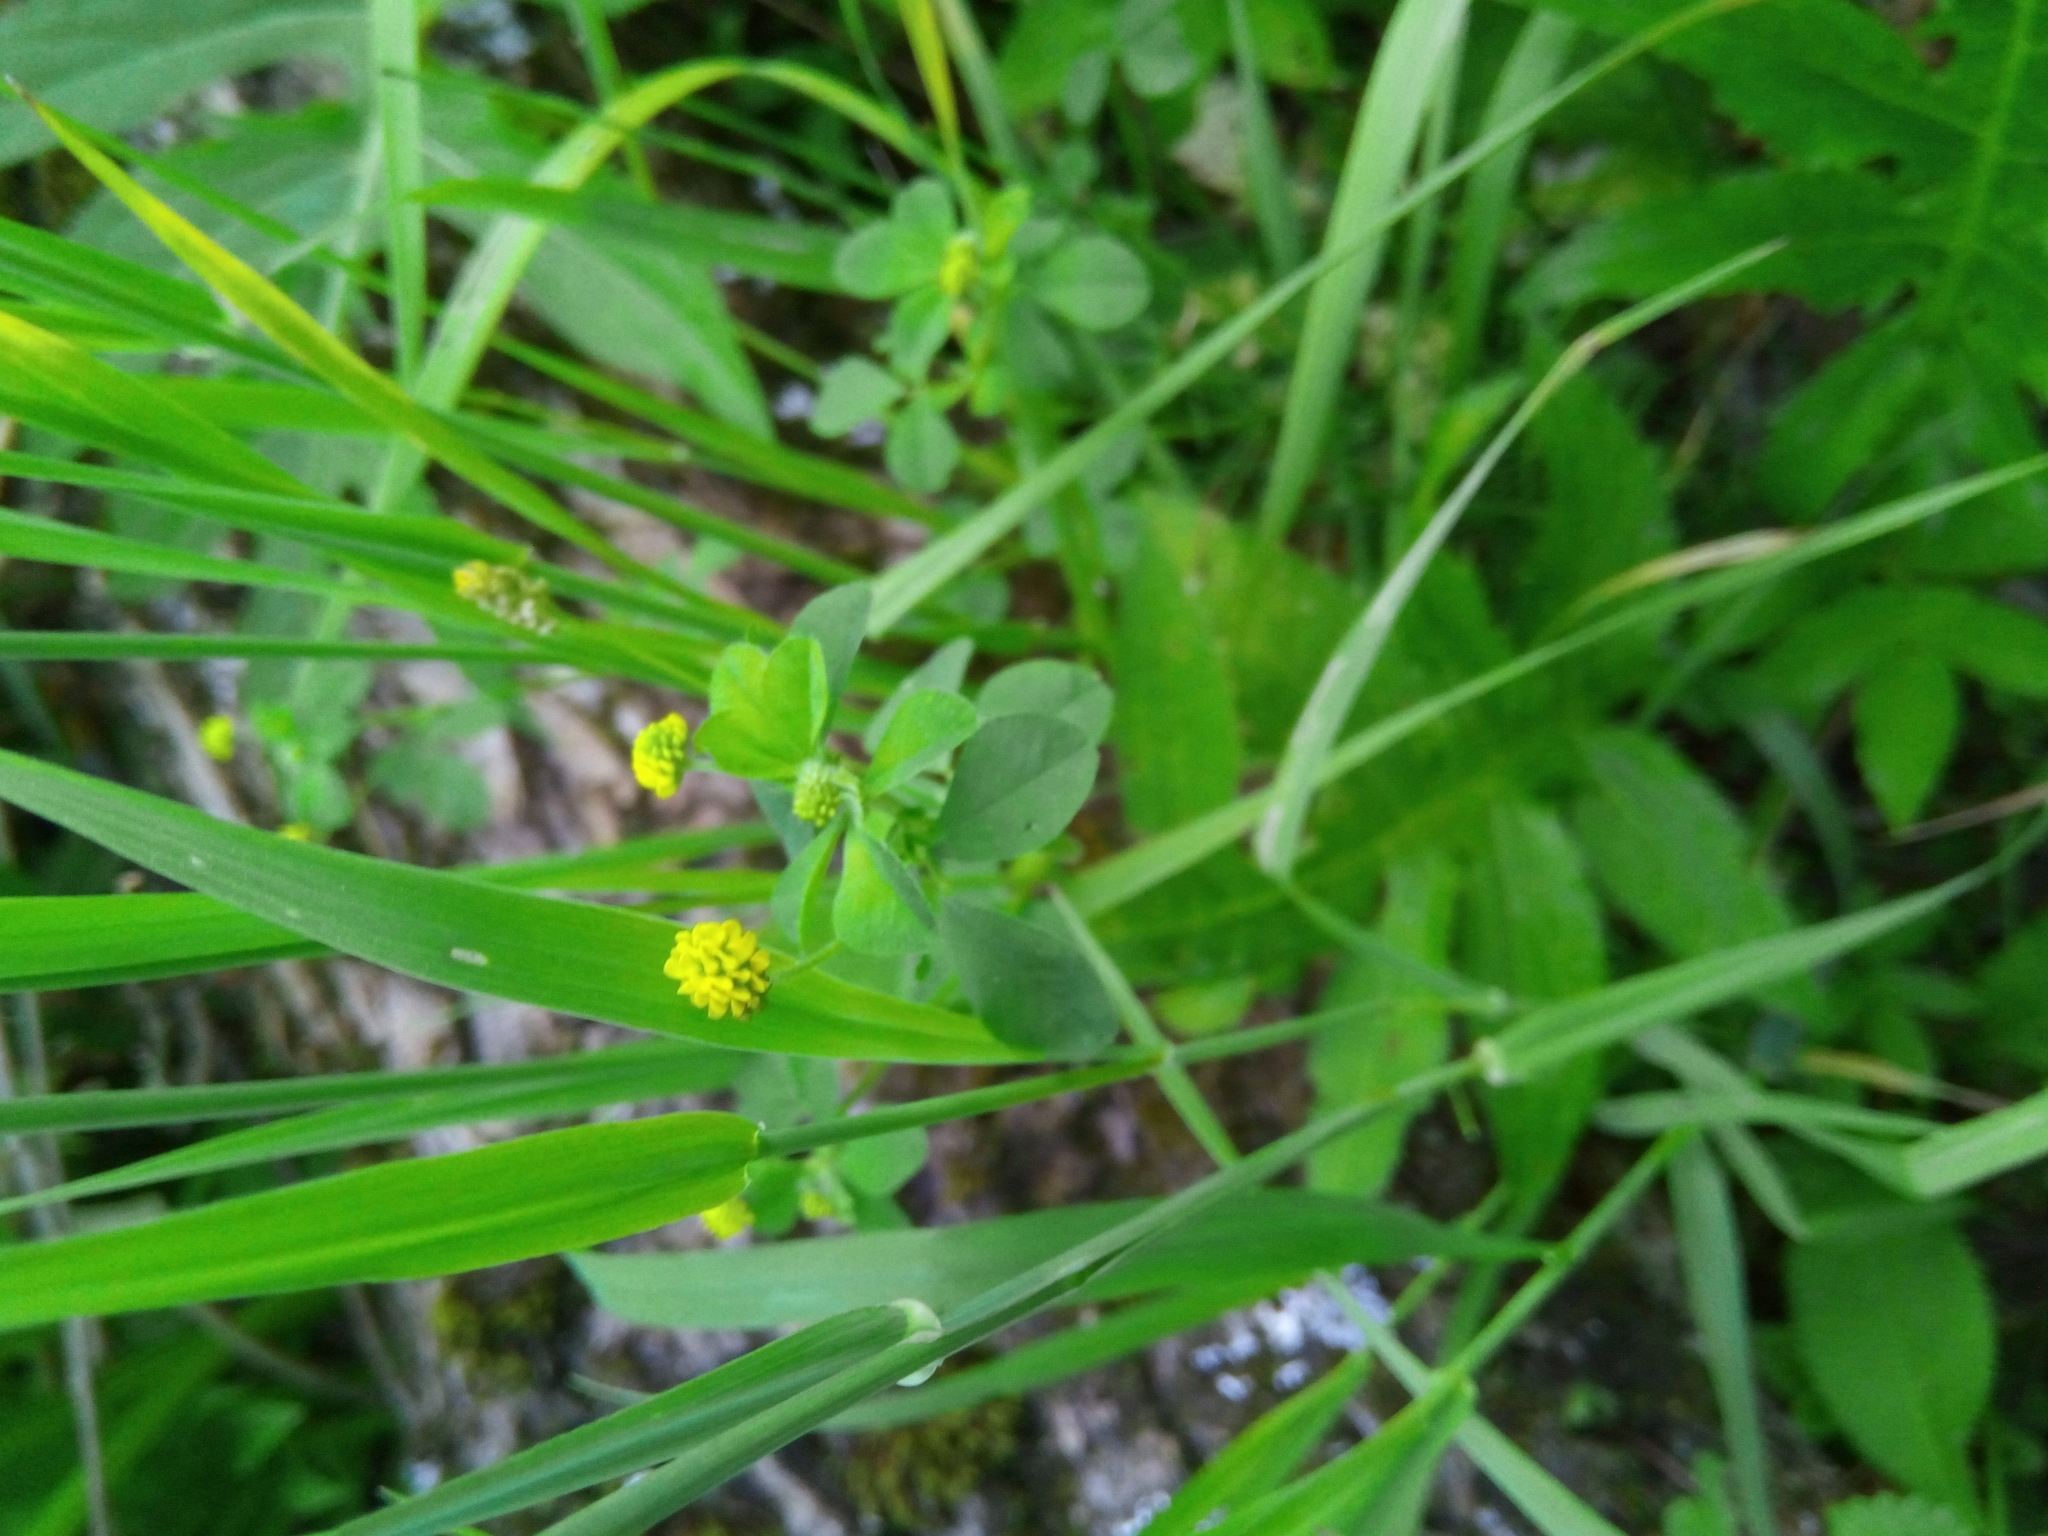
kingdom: Plantae
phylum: Tracheophyta
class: Magnoliopsida
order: Fabales
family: Fabaceae
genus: Medicago
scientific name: Medicago lupulina
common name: Black medick
